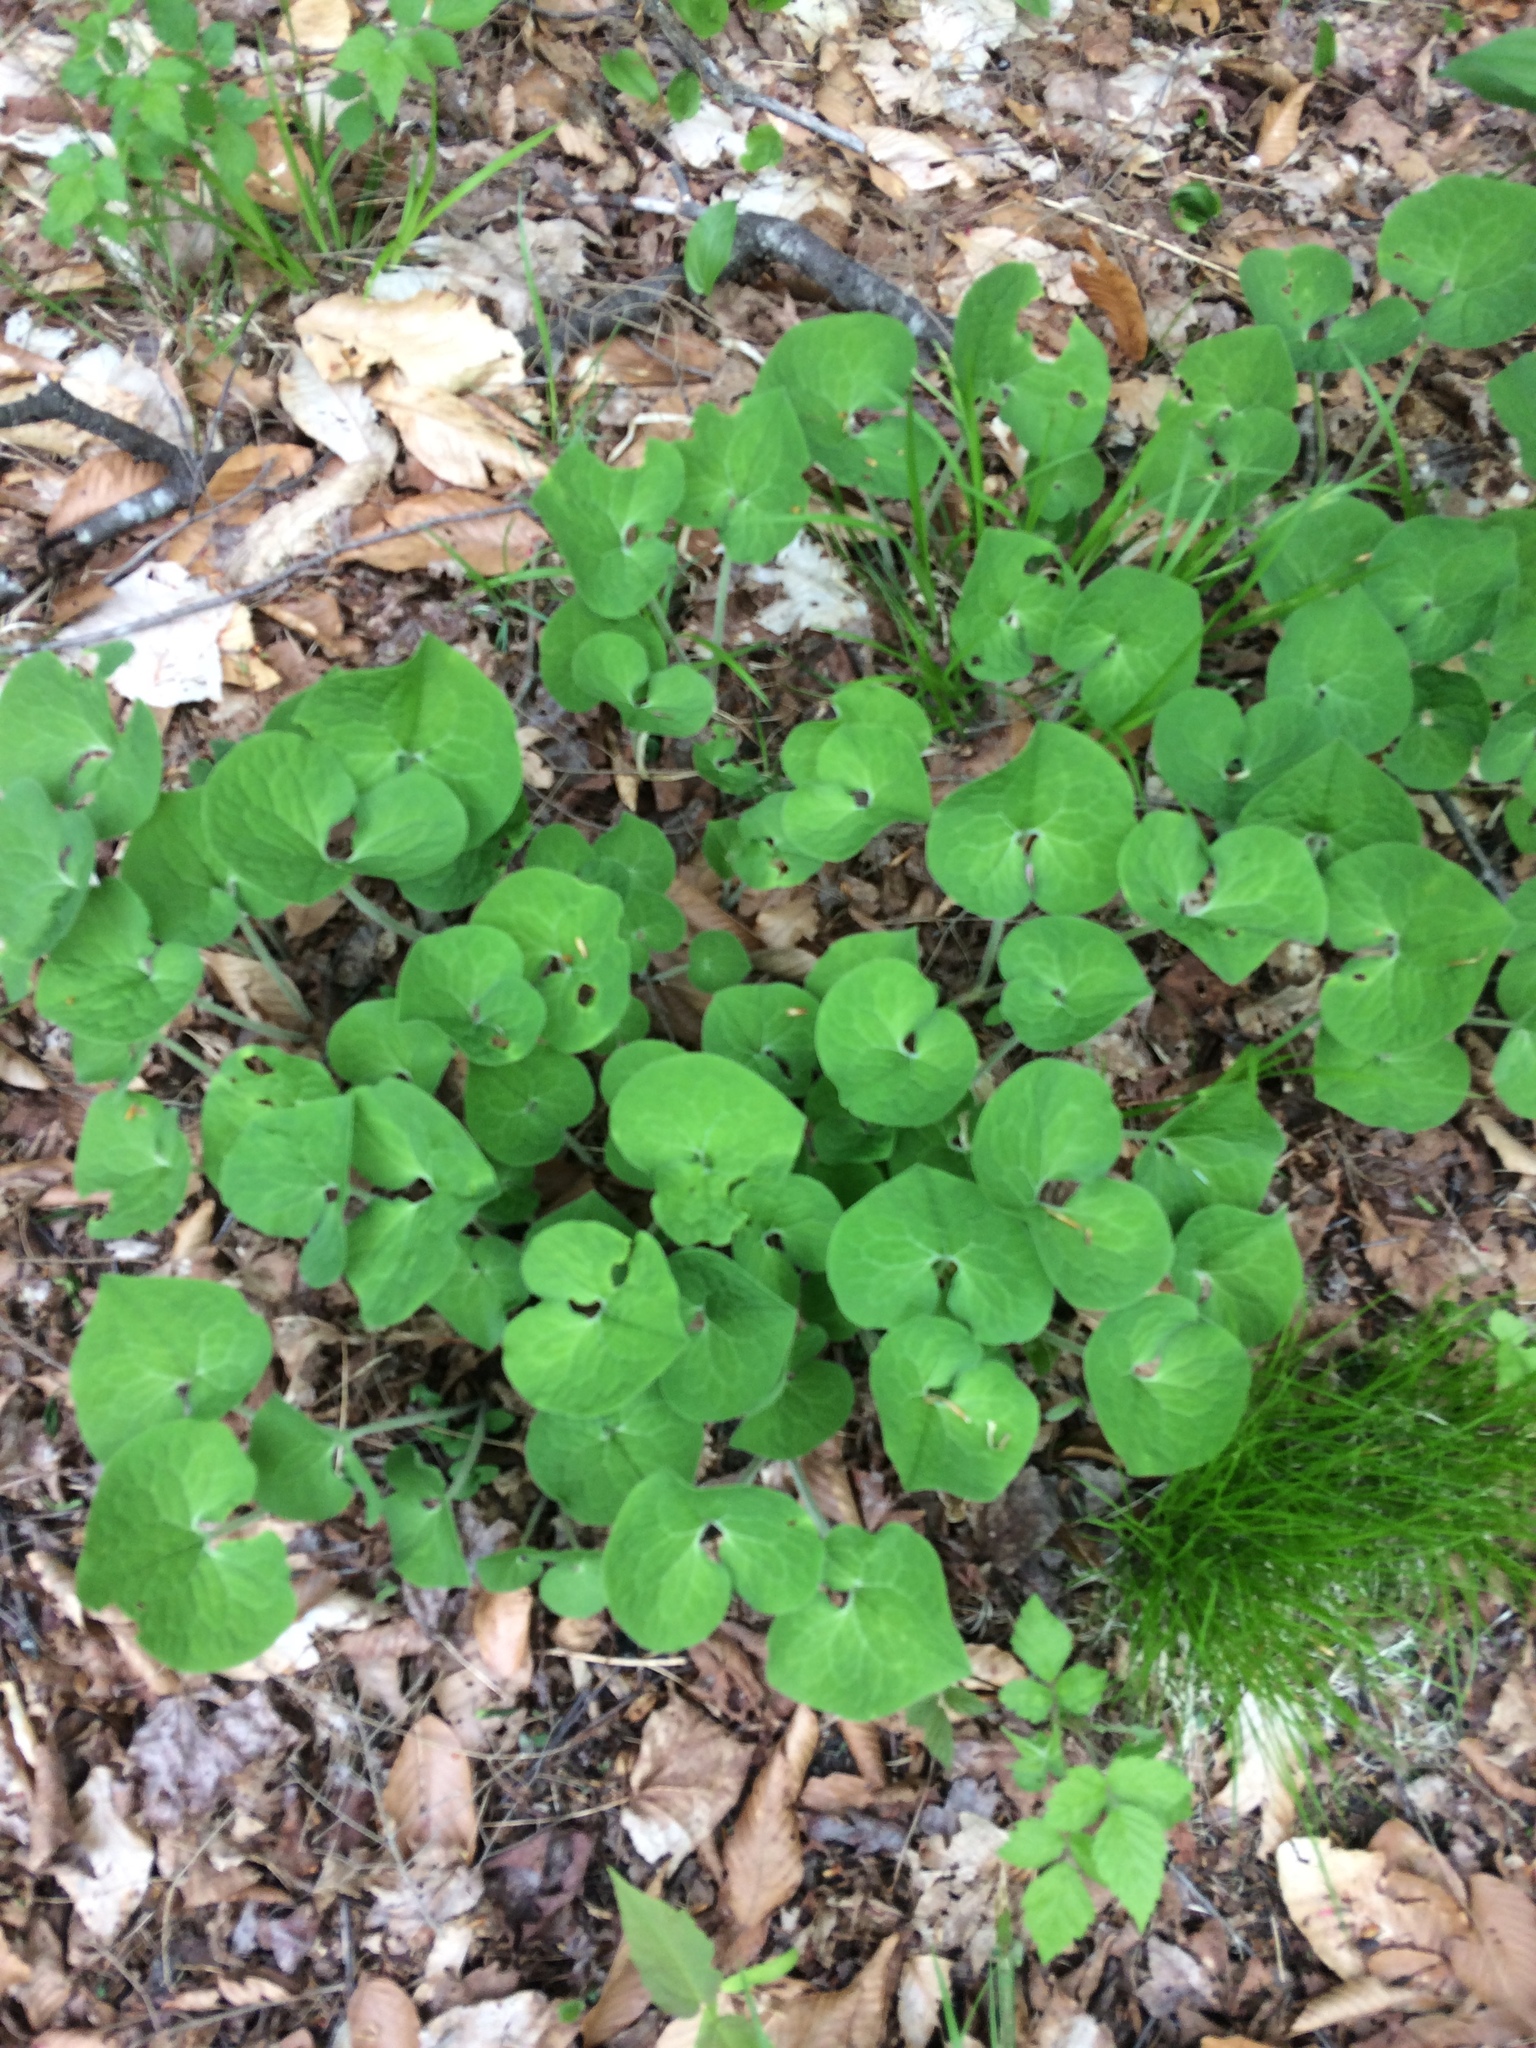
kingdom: Plantae
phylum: Tracheophyta
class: Magnoliopsida
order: Piperales
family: Aristolochiaceae
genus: Asarum
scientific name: Asarum canadense
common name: Wild ginger
